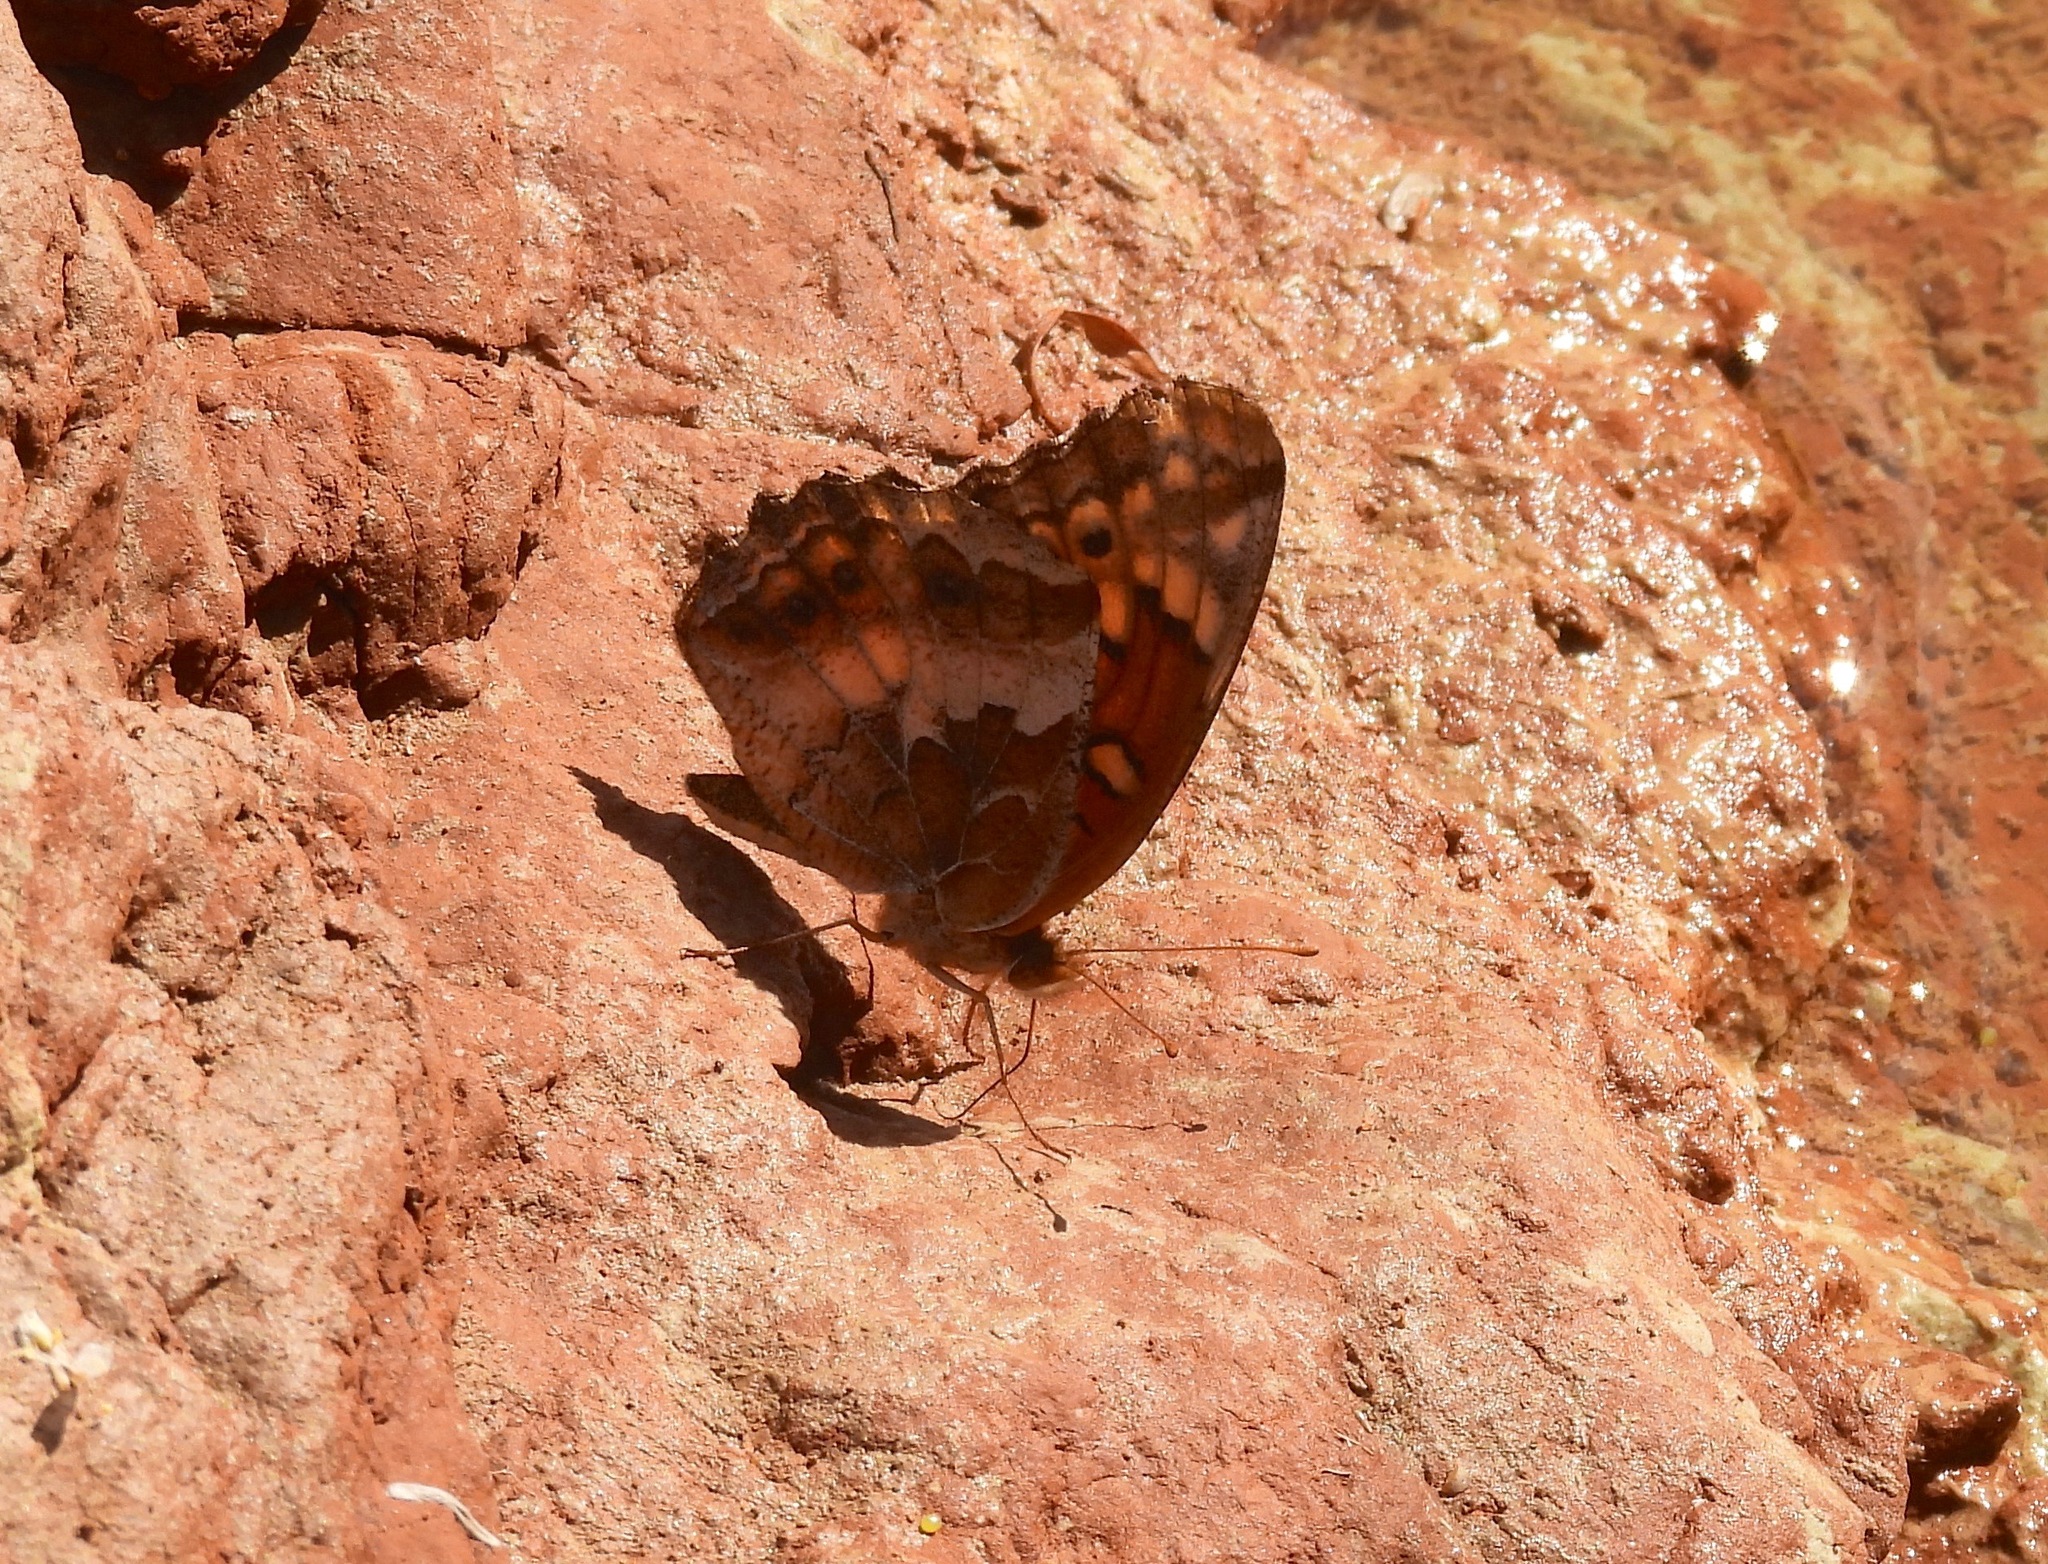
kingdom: Animalia
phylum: Arthropoda
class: Insecta
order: Lepidoptera
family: Nymphalidae
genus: Euptoieta
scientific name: Euptoieta claudia
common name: Variegated fritillary
